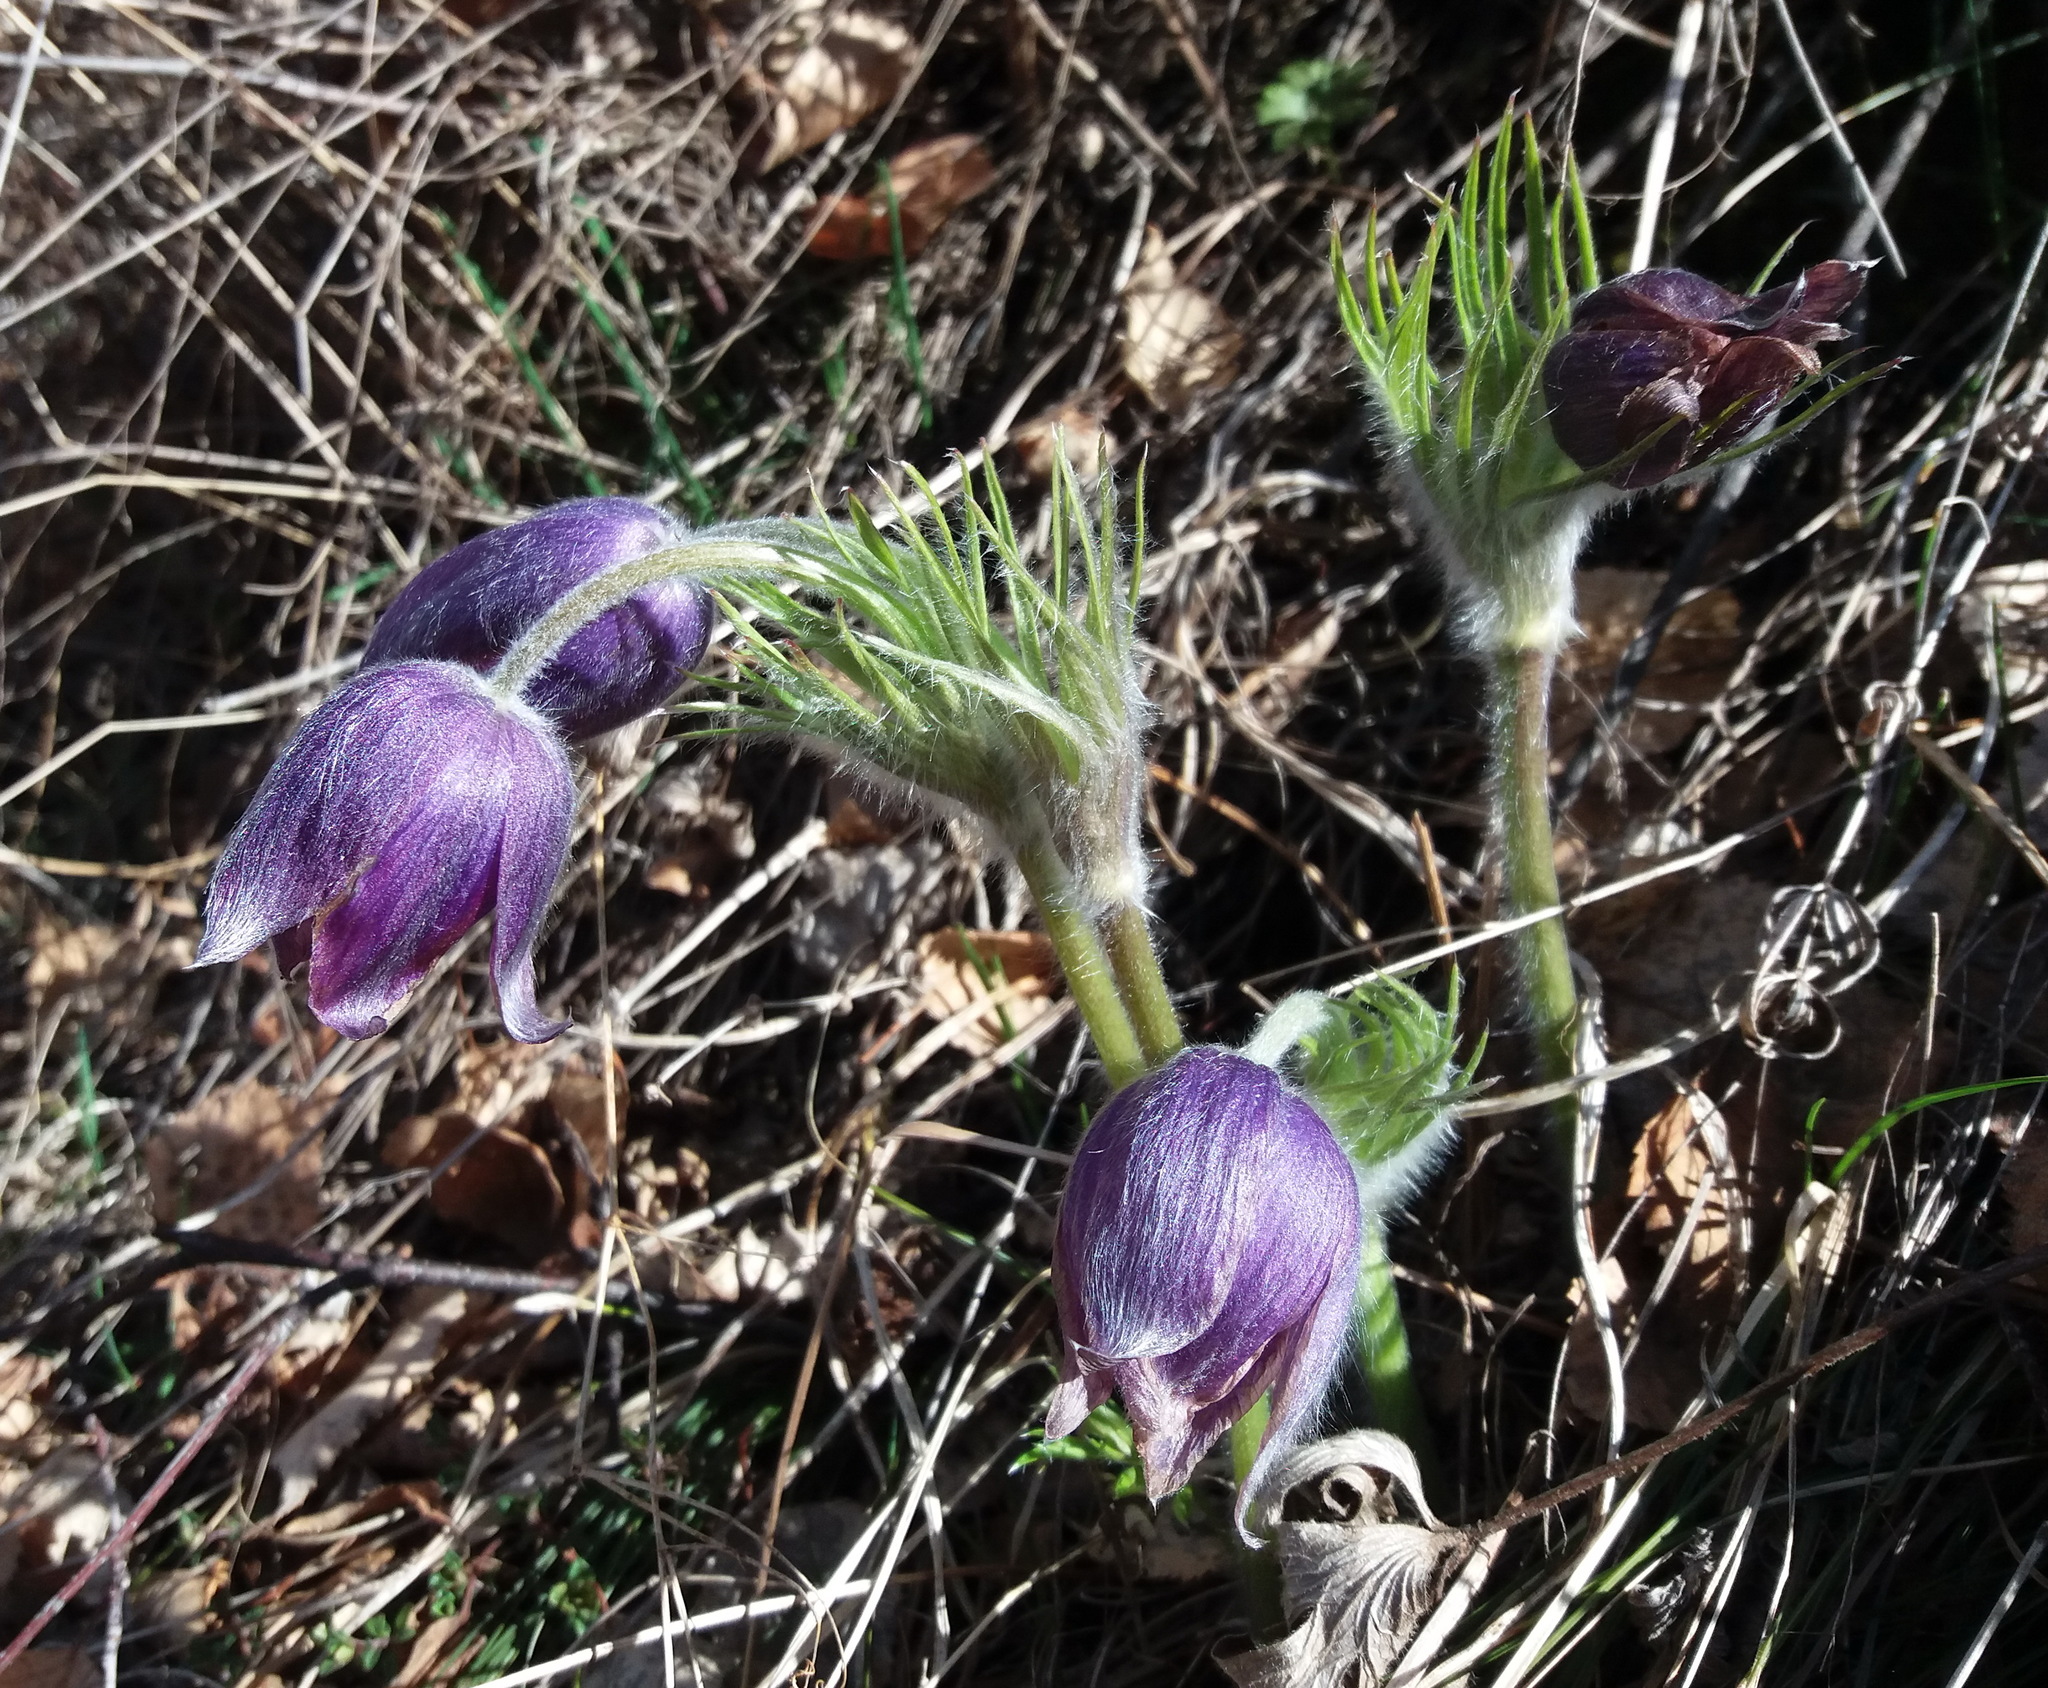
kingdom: Plantae
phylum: Tracheophyta
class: Magnoliopsida
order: Ranunculales
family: Ranunculaceae
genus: Pulsatilla
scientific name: Pulsatilla patens
